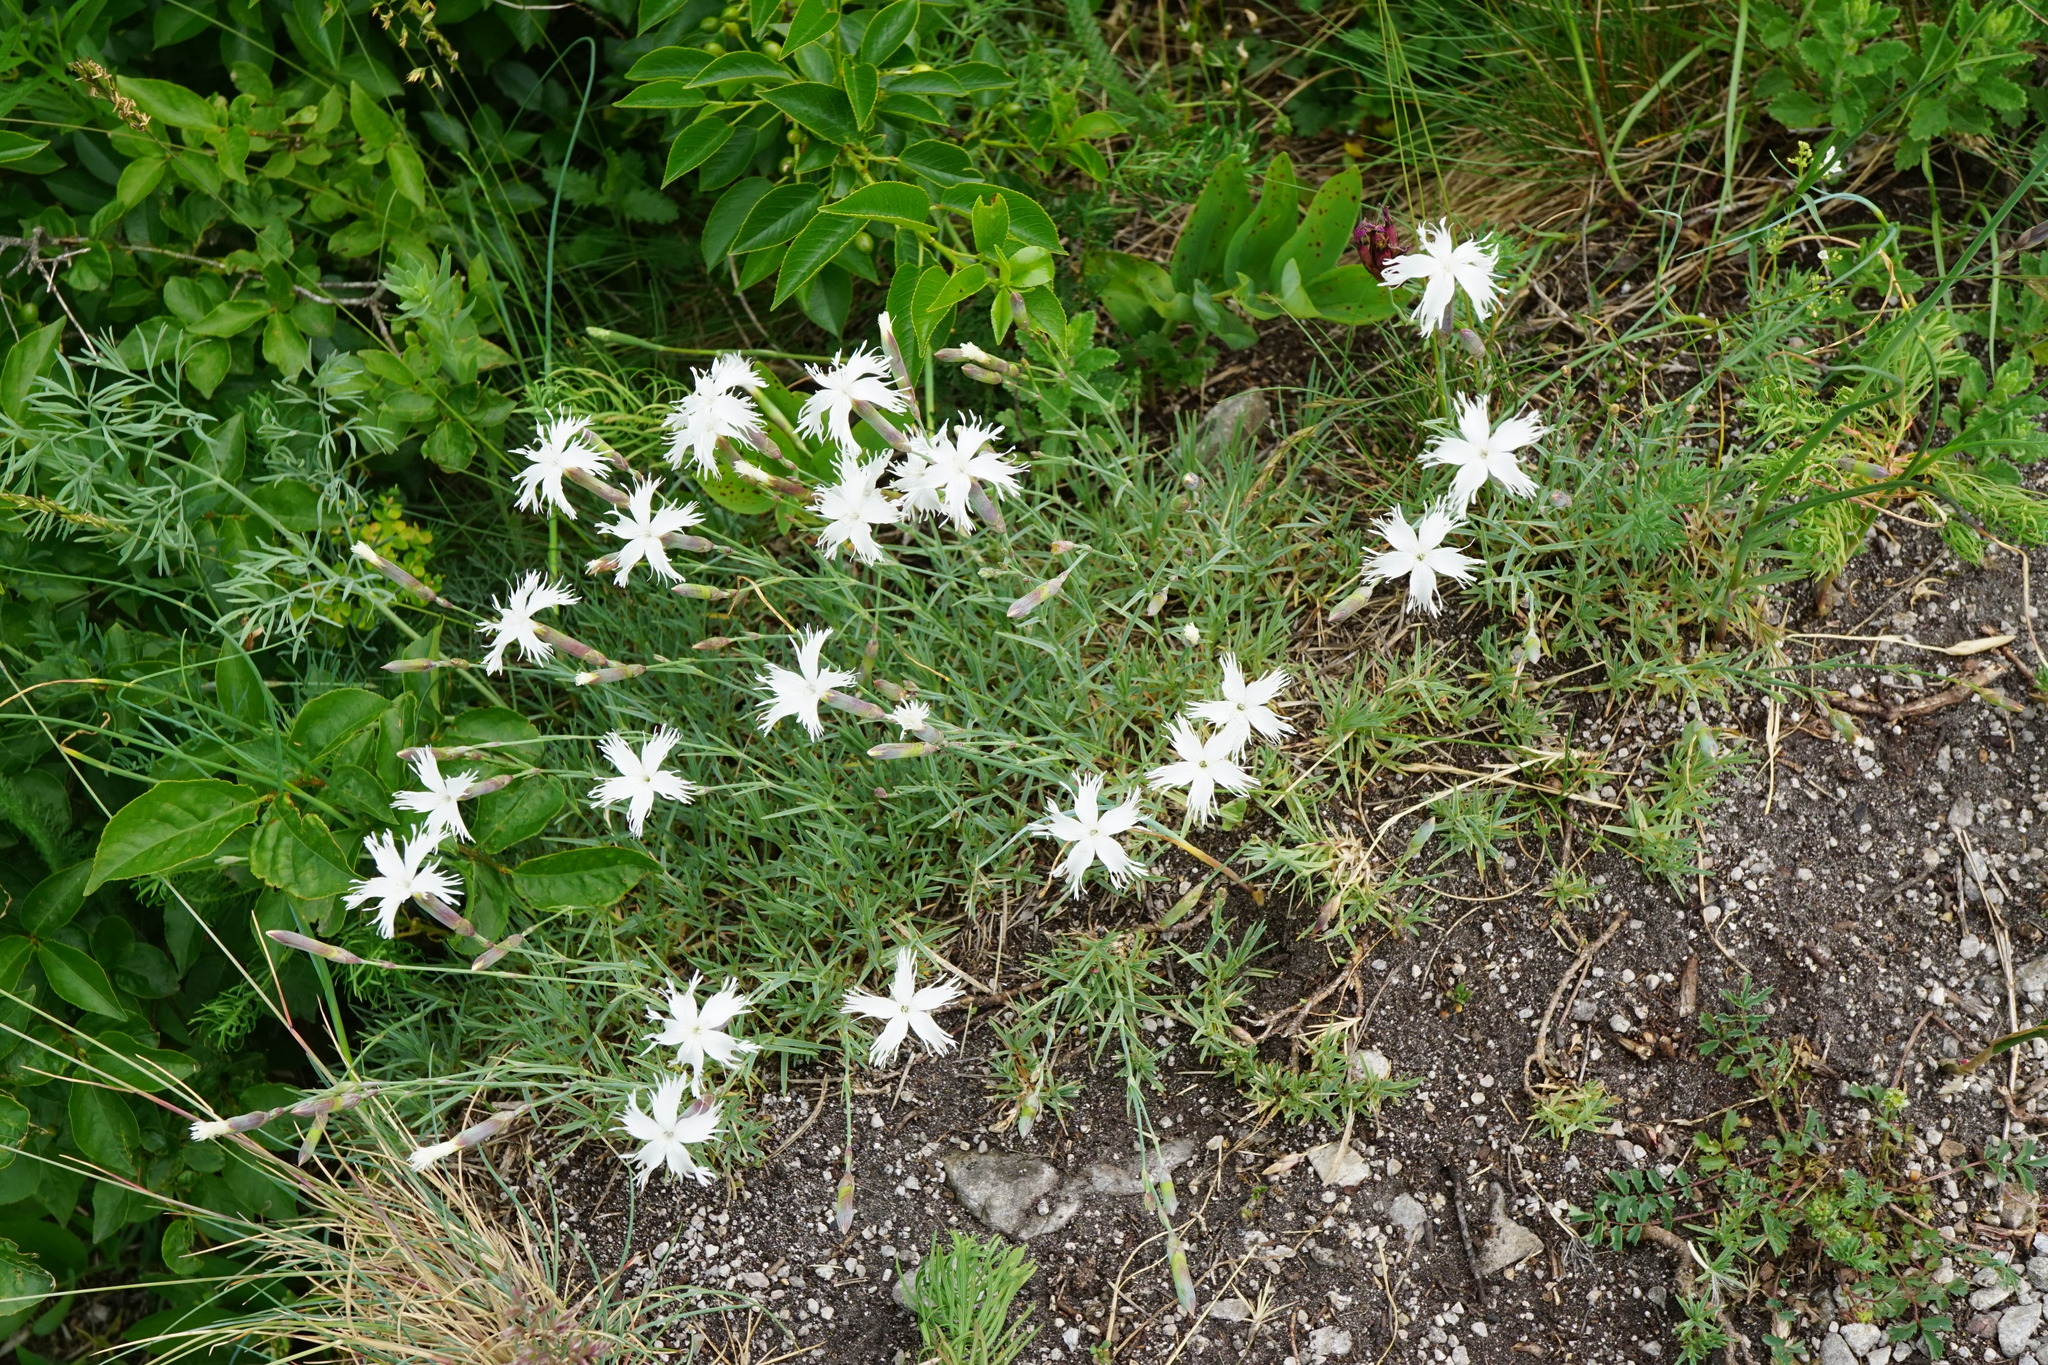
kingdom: Plantae
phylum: Tracheophyta
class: Magnoliopsida
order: Caryophyllales
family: Caryophyllaceae
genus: Dianthus
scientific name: Dianthus praecox
